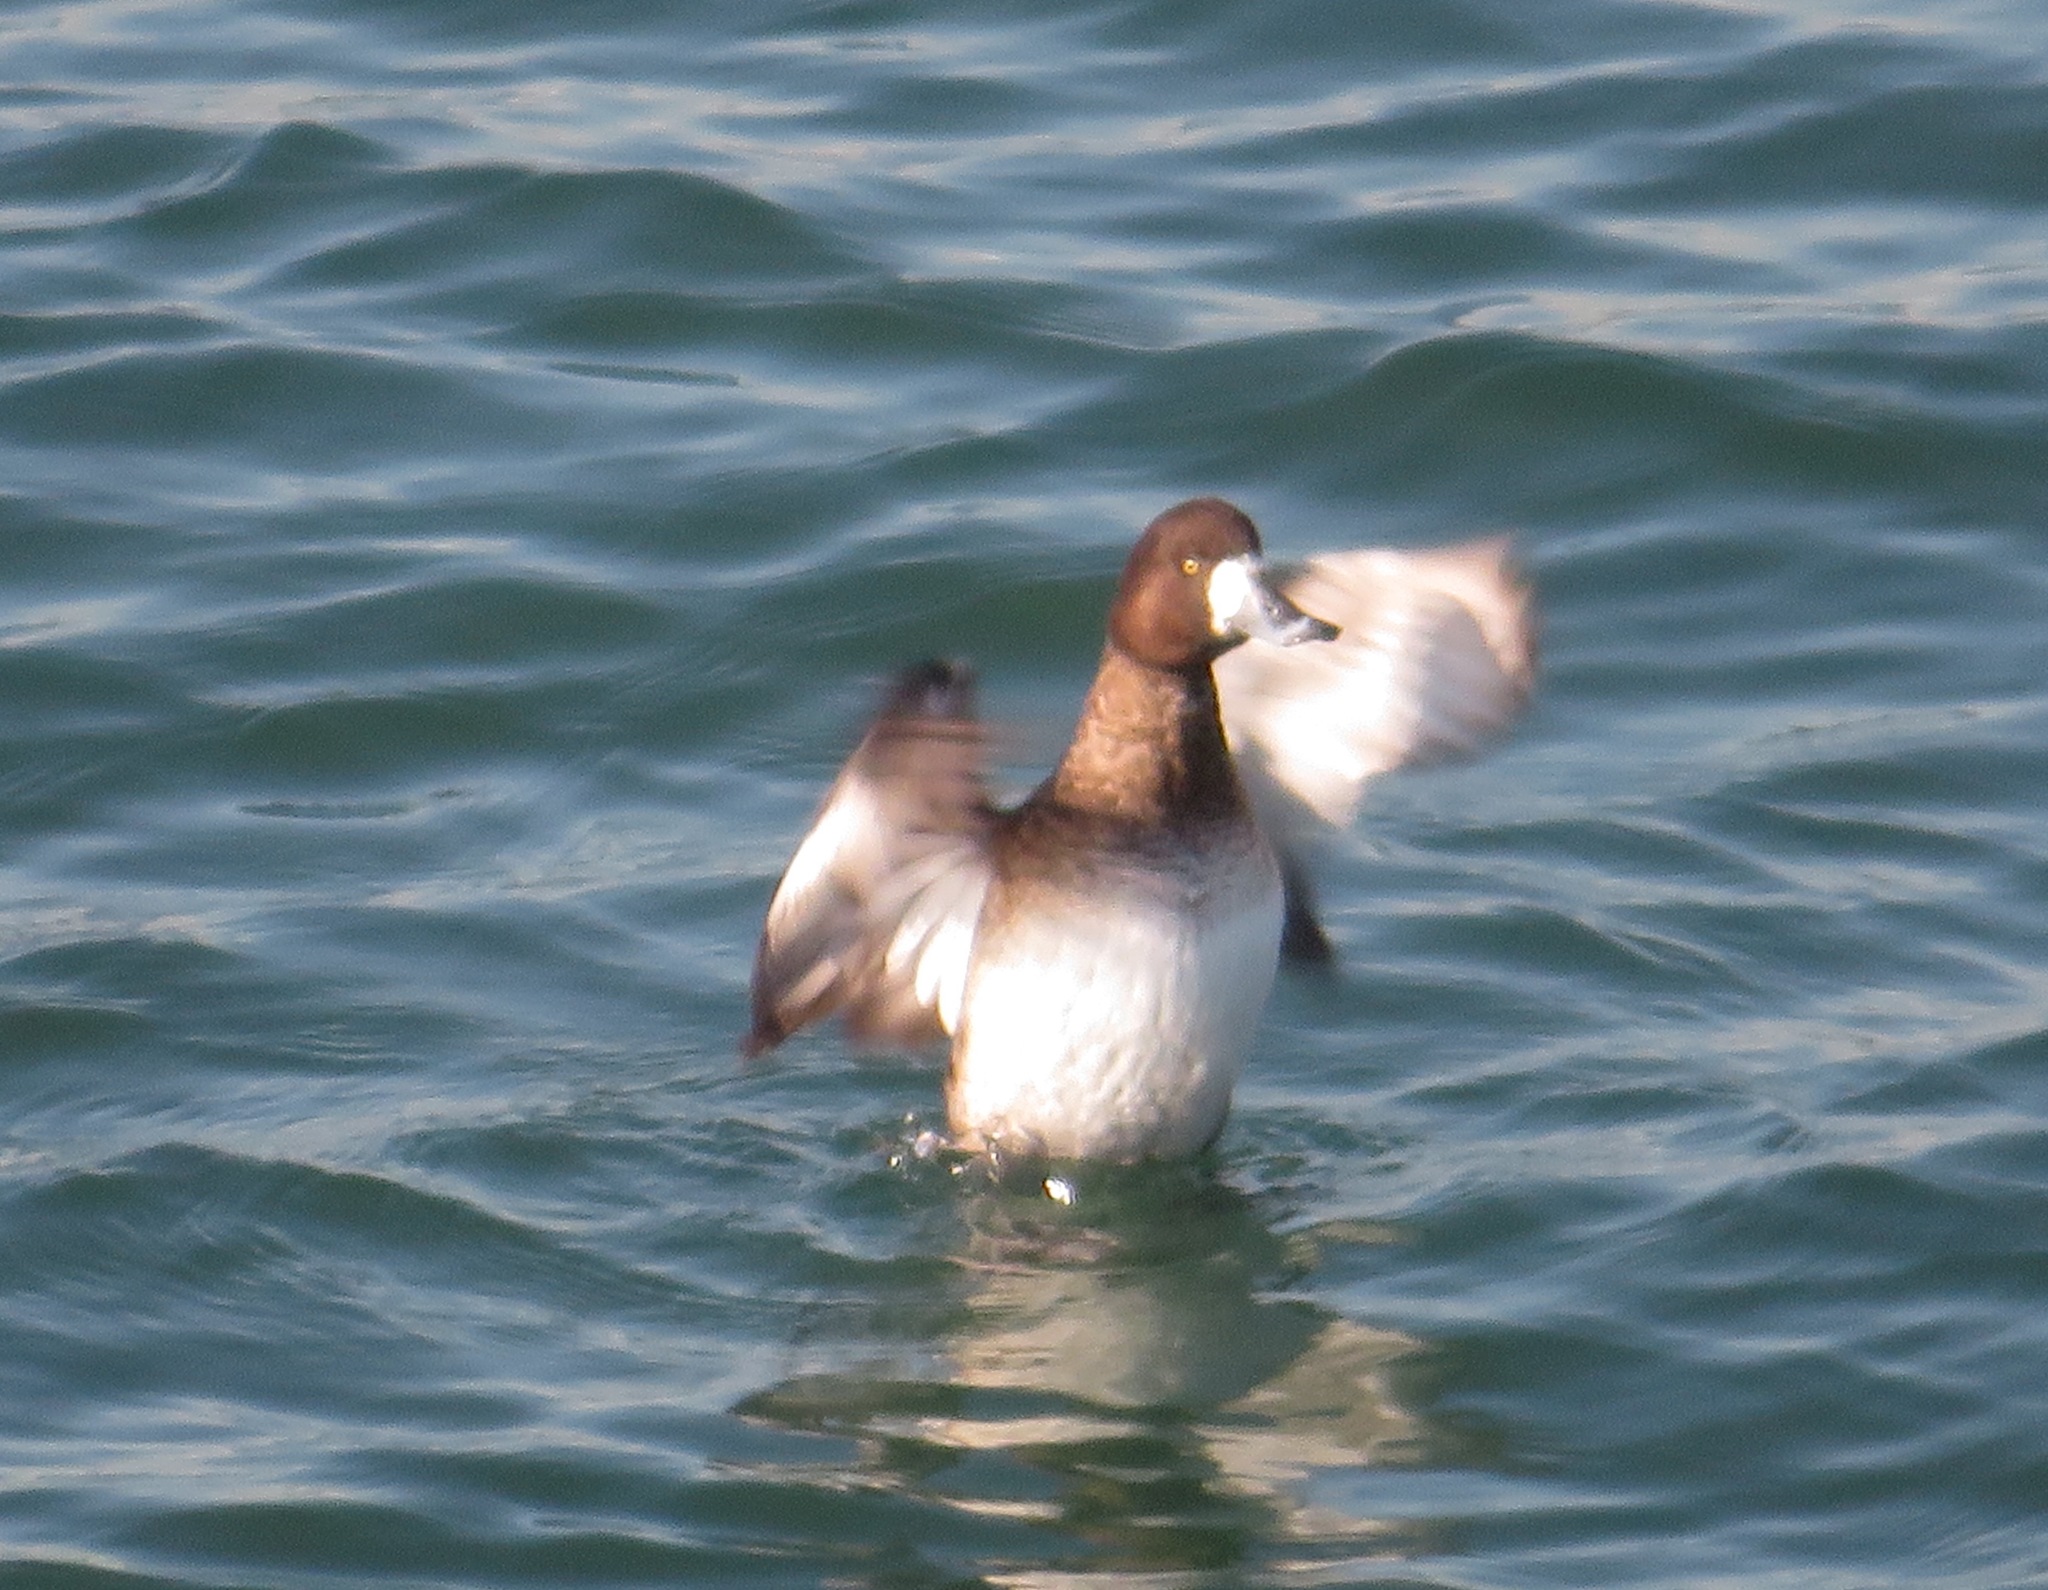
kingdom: Animalia
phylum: Chordata
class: Aves
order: Anseriformes
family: Anatidae
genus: Aythya
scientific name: Aythya marila
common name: Greater scaup
